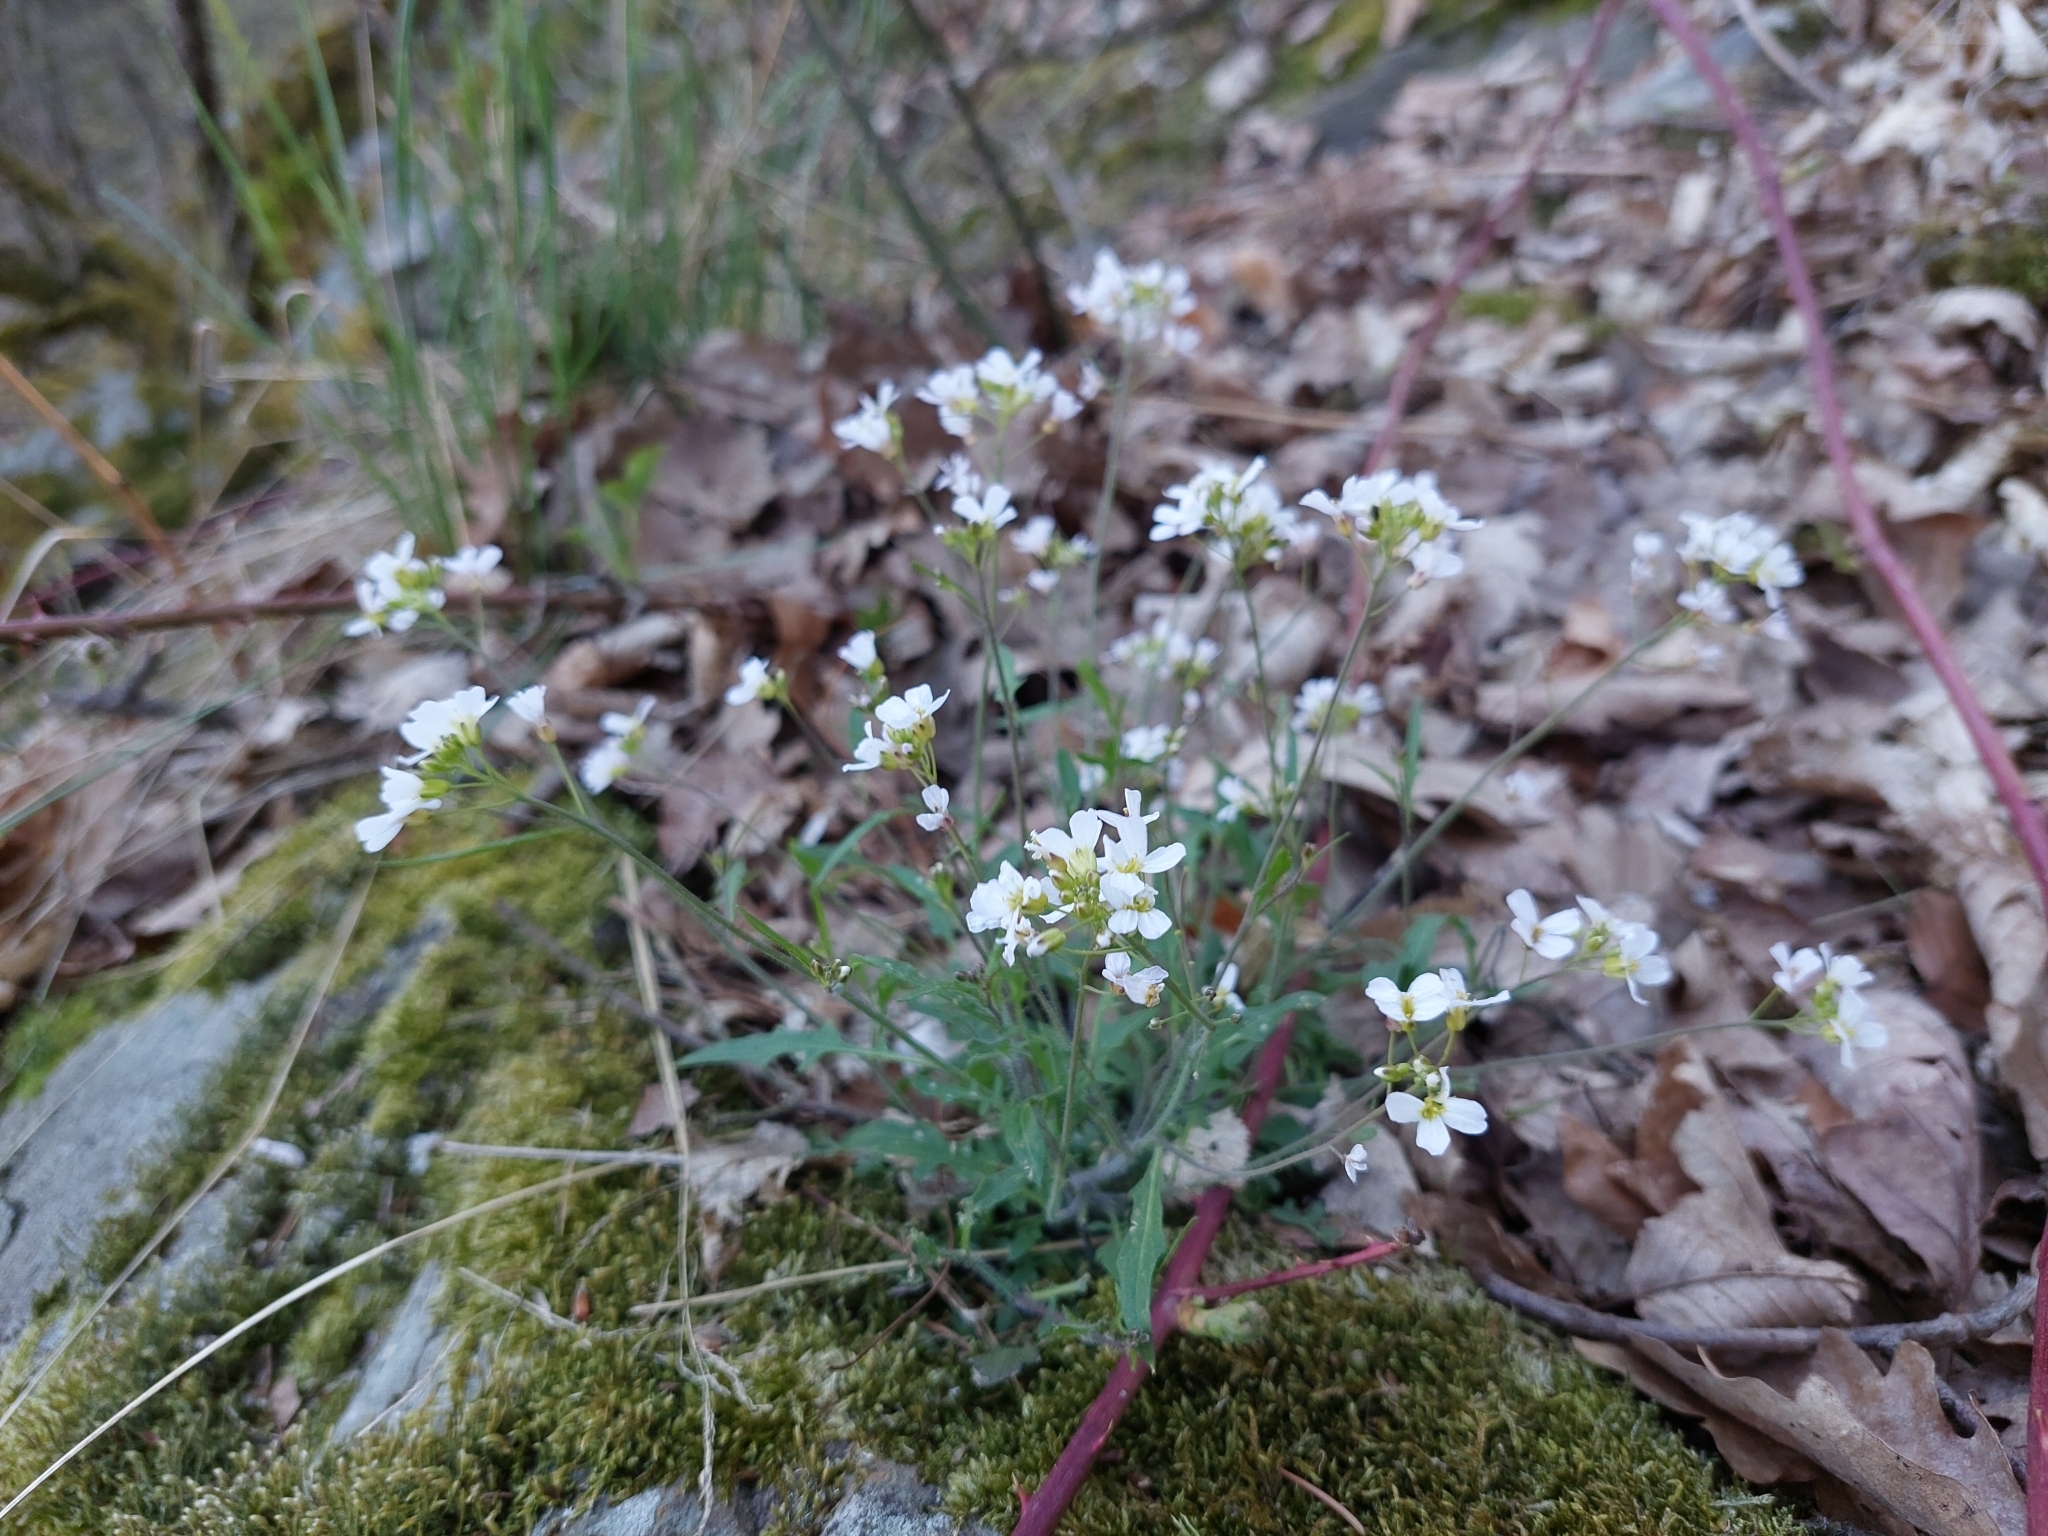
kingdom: Plantae
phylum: Tracheophyta
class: Magnoliopsida
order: Brassicales
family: Brassicaceae
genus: Arabidopsis
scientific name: Arabidopsis arenosa
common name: Sand rock-cress
